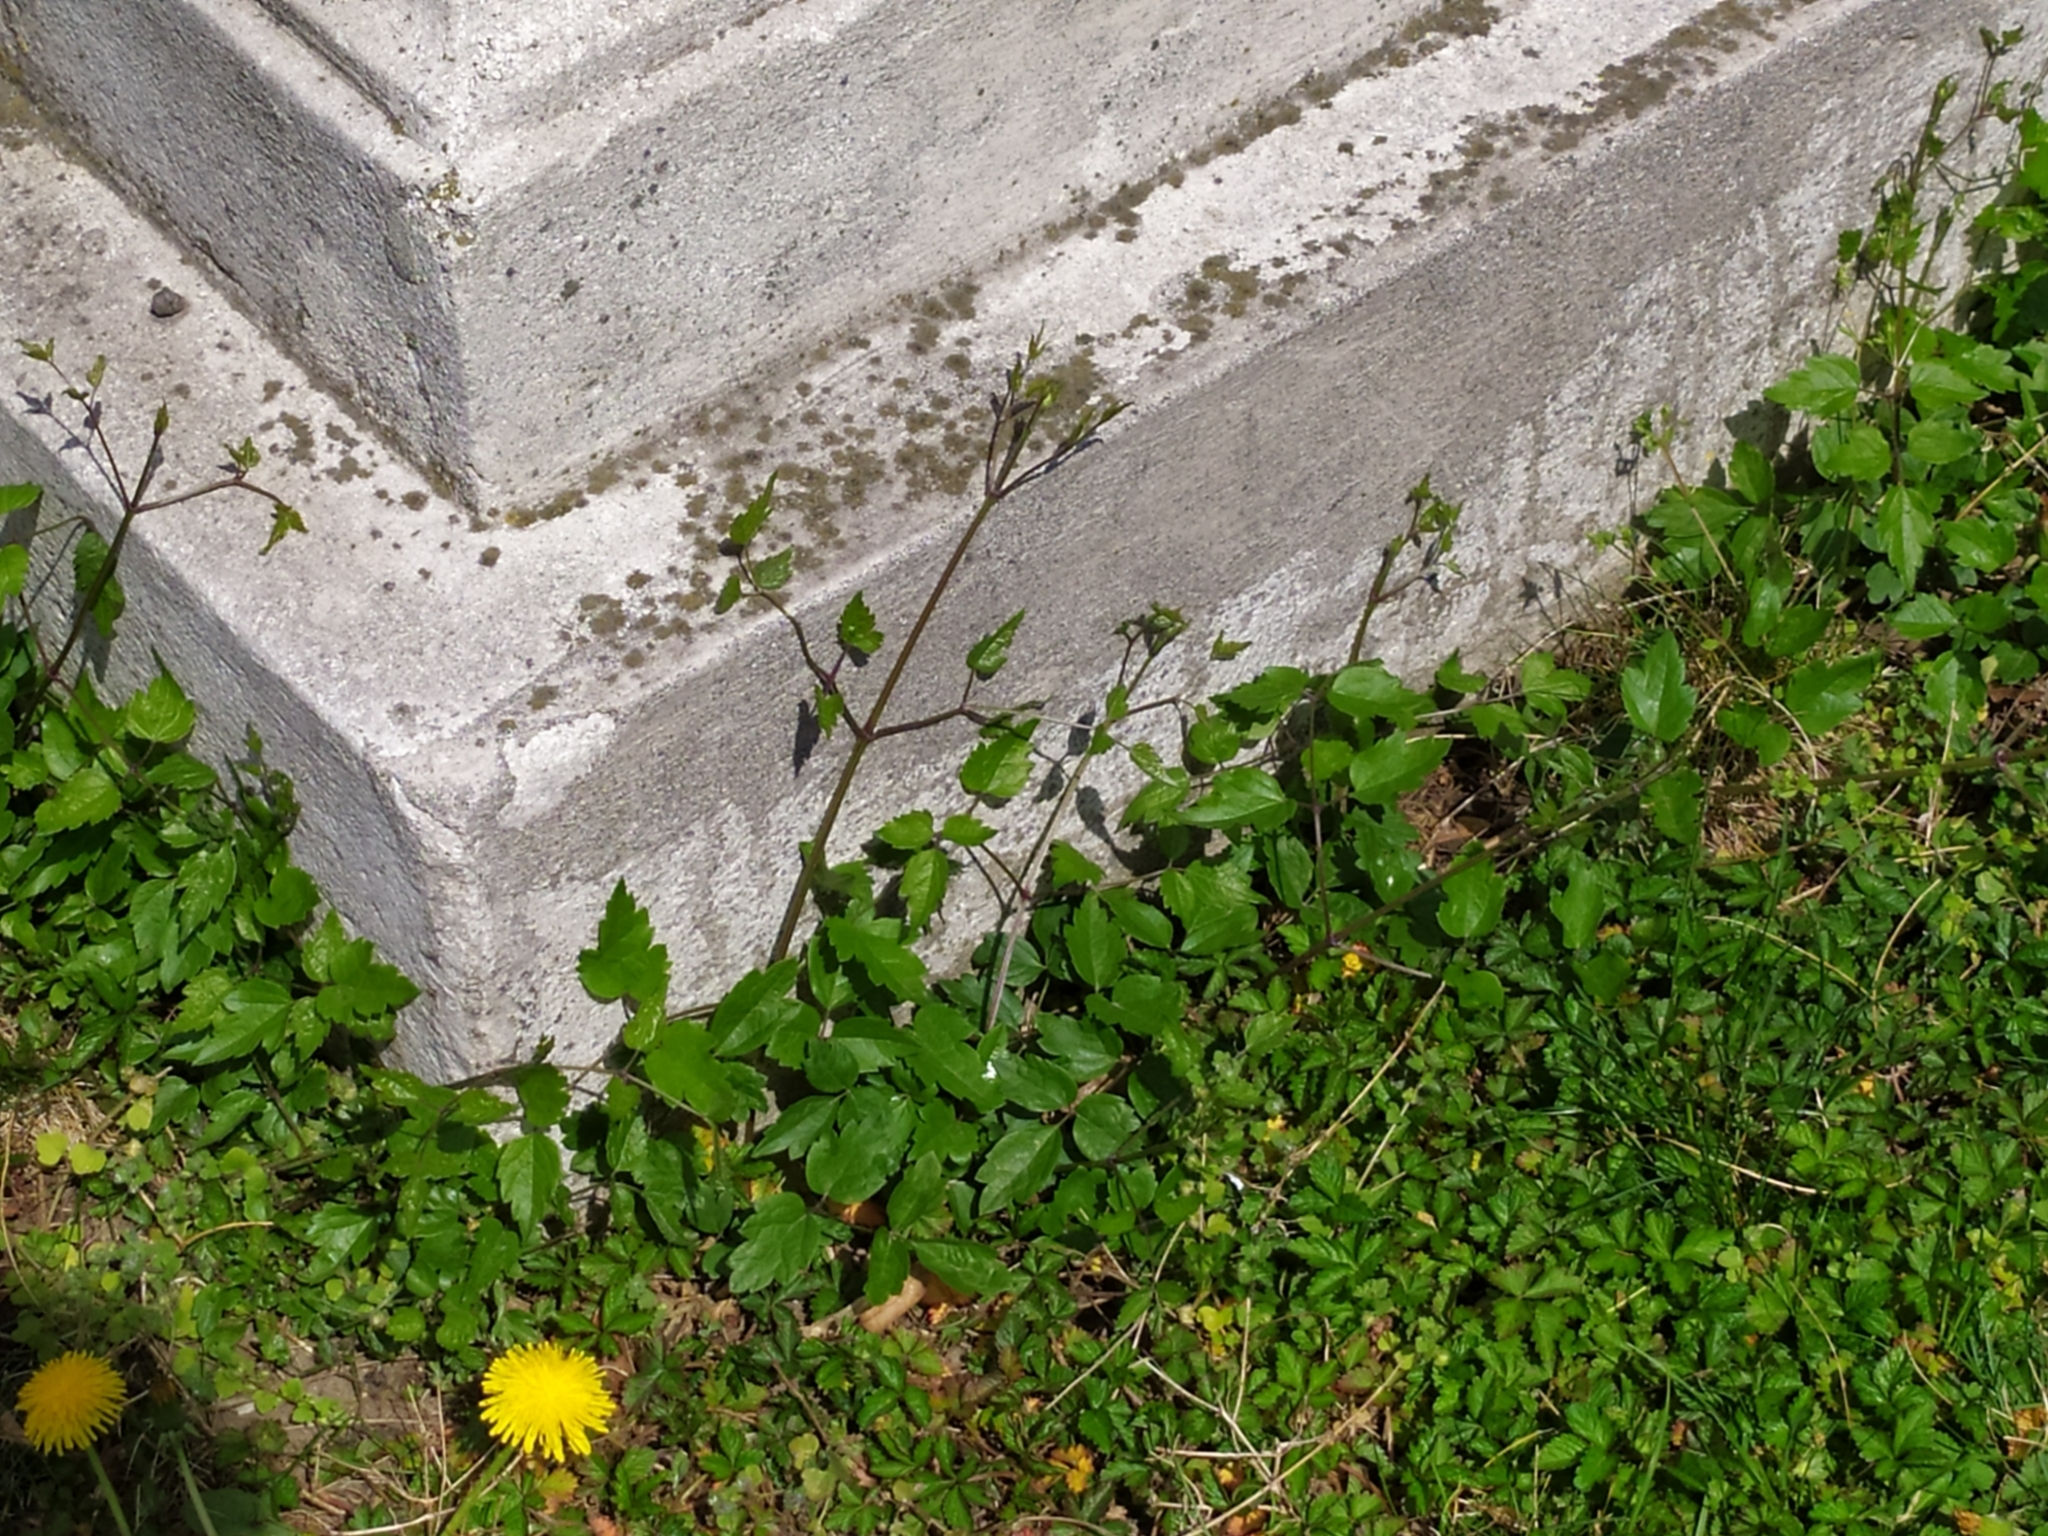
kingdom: Plantae
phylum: Tracheophyta
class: Magnoliopsida
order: Ranunculales
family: Ranunculaceae
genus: Clematis
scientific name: Clematis vitalba
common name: Evergreen clematis
